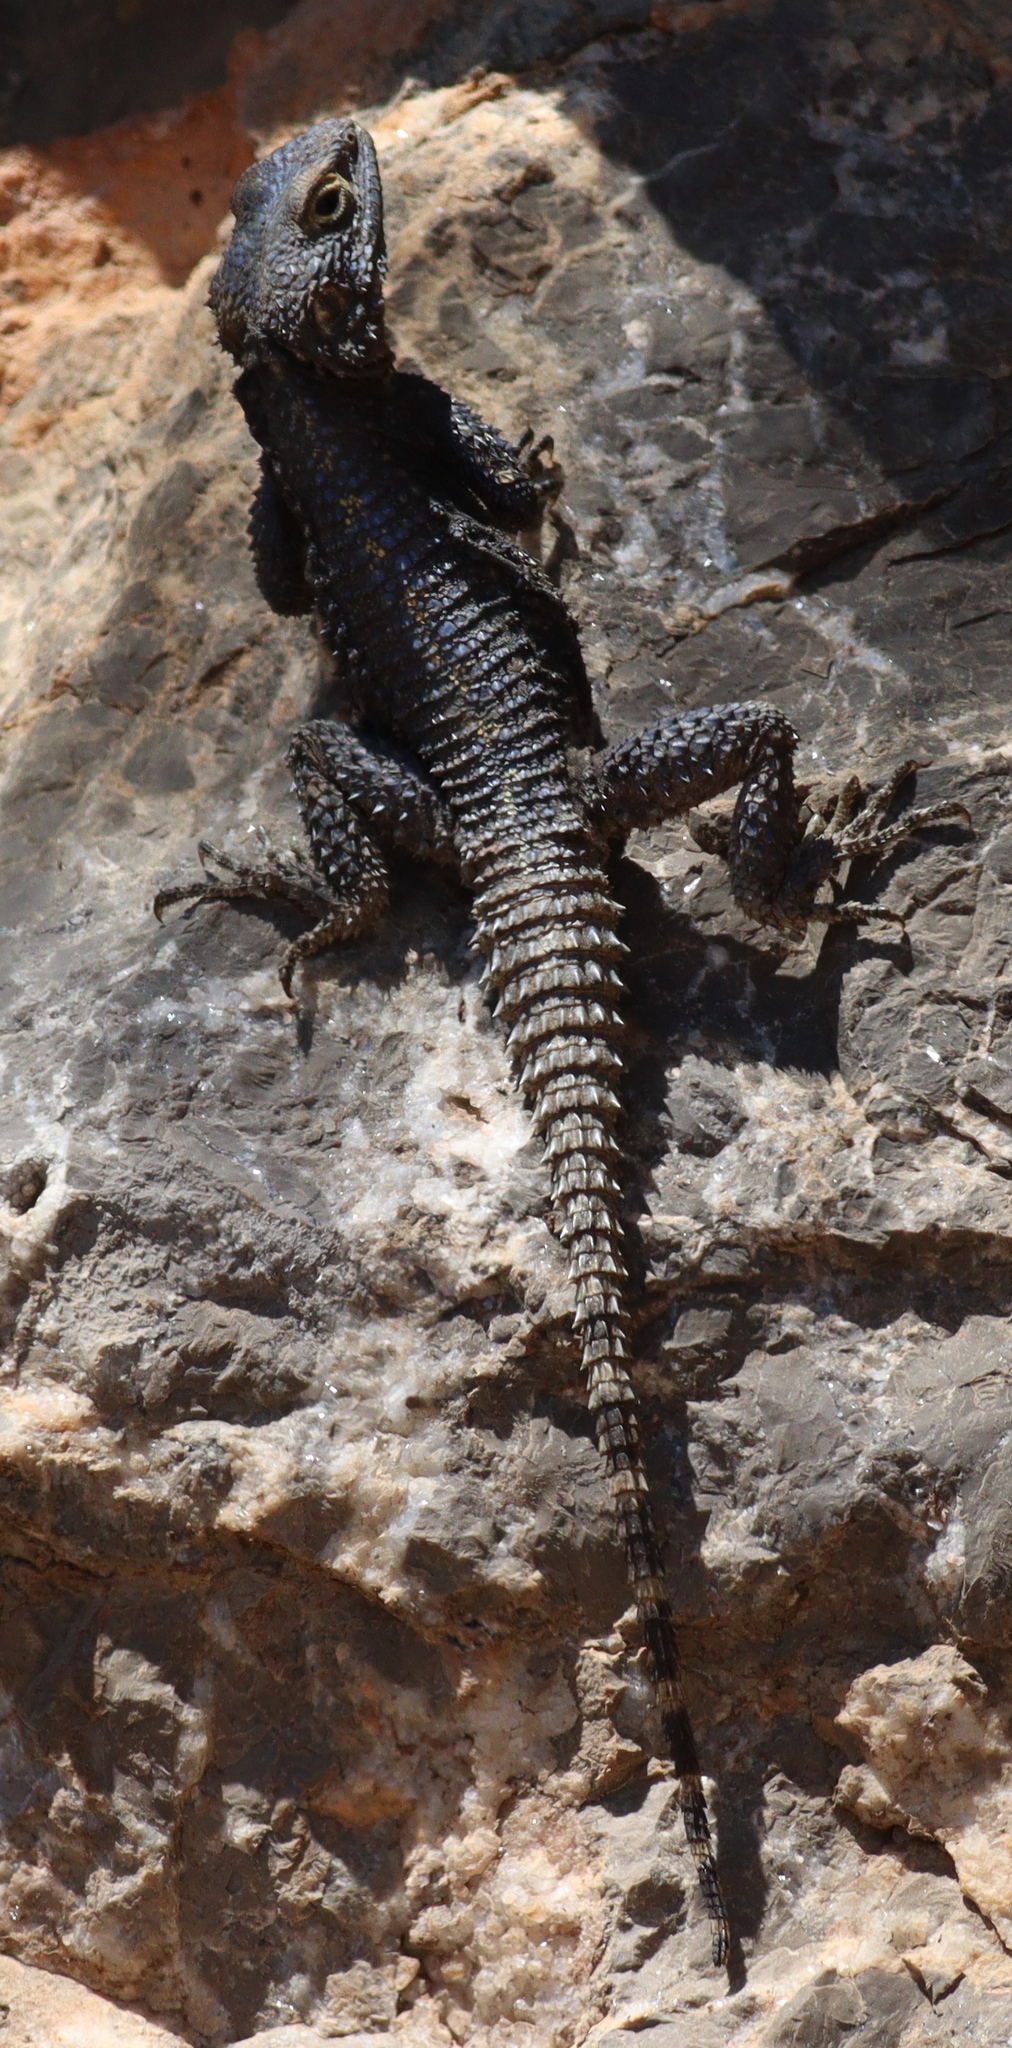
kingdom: Animalia
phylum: Chordata
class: Squamata
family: Agamidae
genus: Stellagama
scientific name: Stellagama stellio
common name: Starred agama
